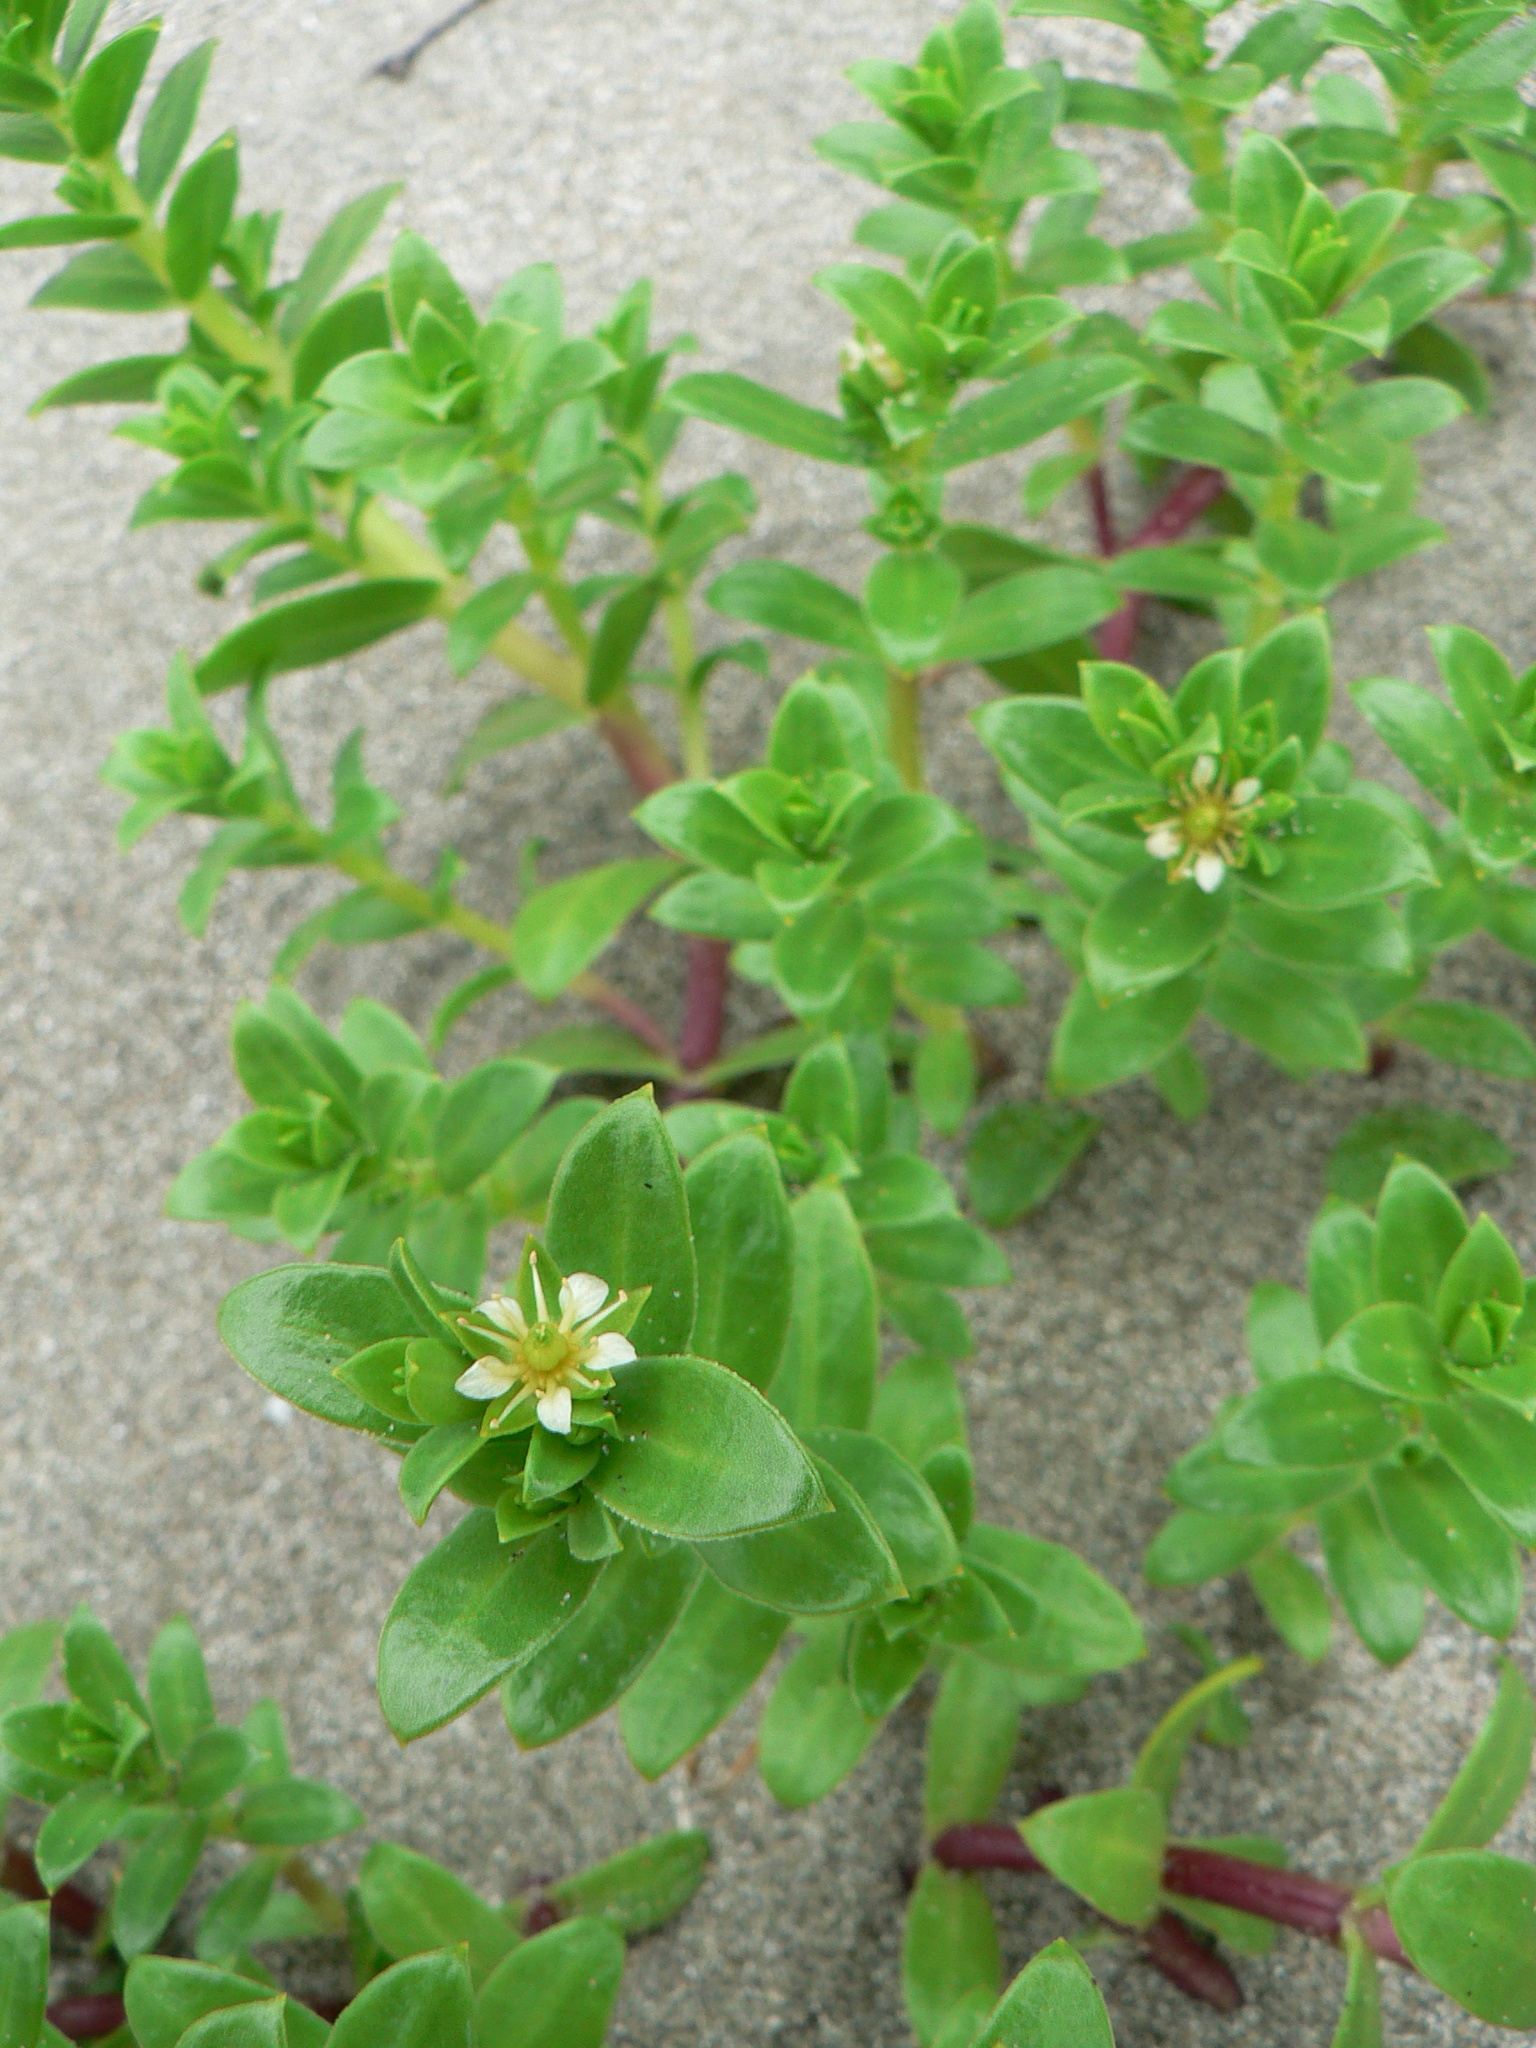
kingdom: Plantae
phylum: Tracheophyta
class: Magnoliopsida
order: Caryophyllales
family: Caryophyllaceae
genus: Honckenya
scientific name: Honckenya peploides
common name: Sea sandwort
